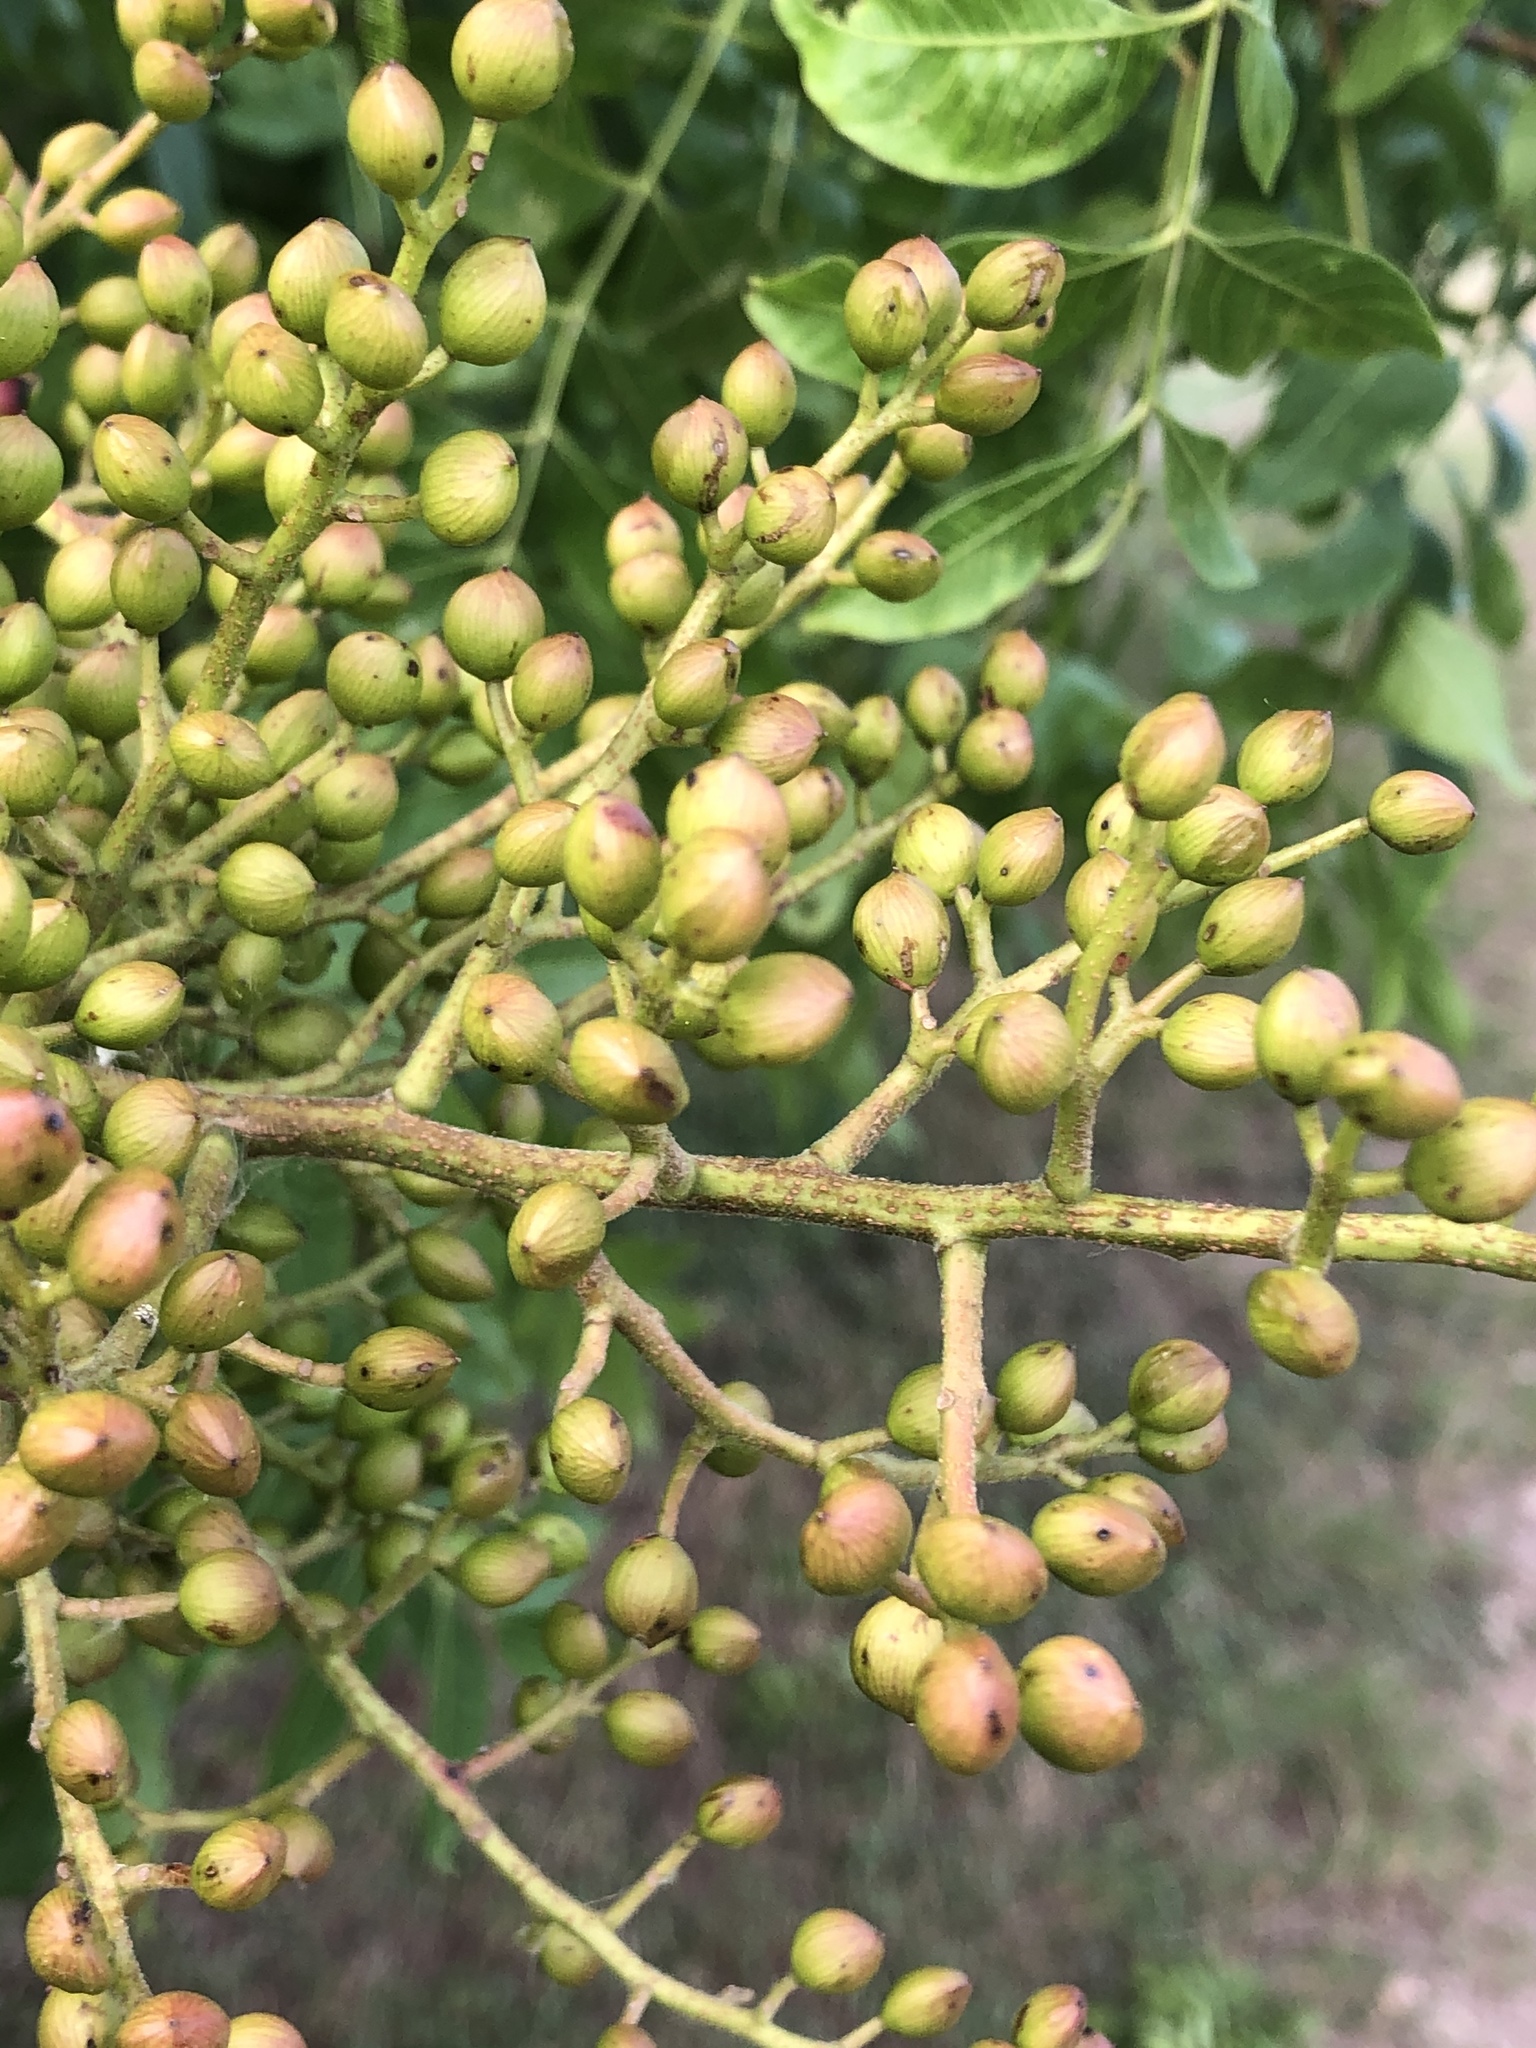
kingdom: Plantae
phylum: Tracheophyta
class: Magnoliopsida
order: Sapindales
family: Anacardiaceae
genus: Pistacia
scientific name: Pistacia chinensis
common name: Chinese pistache
